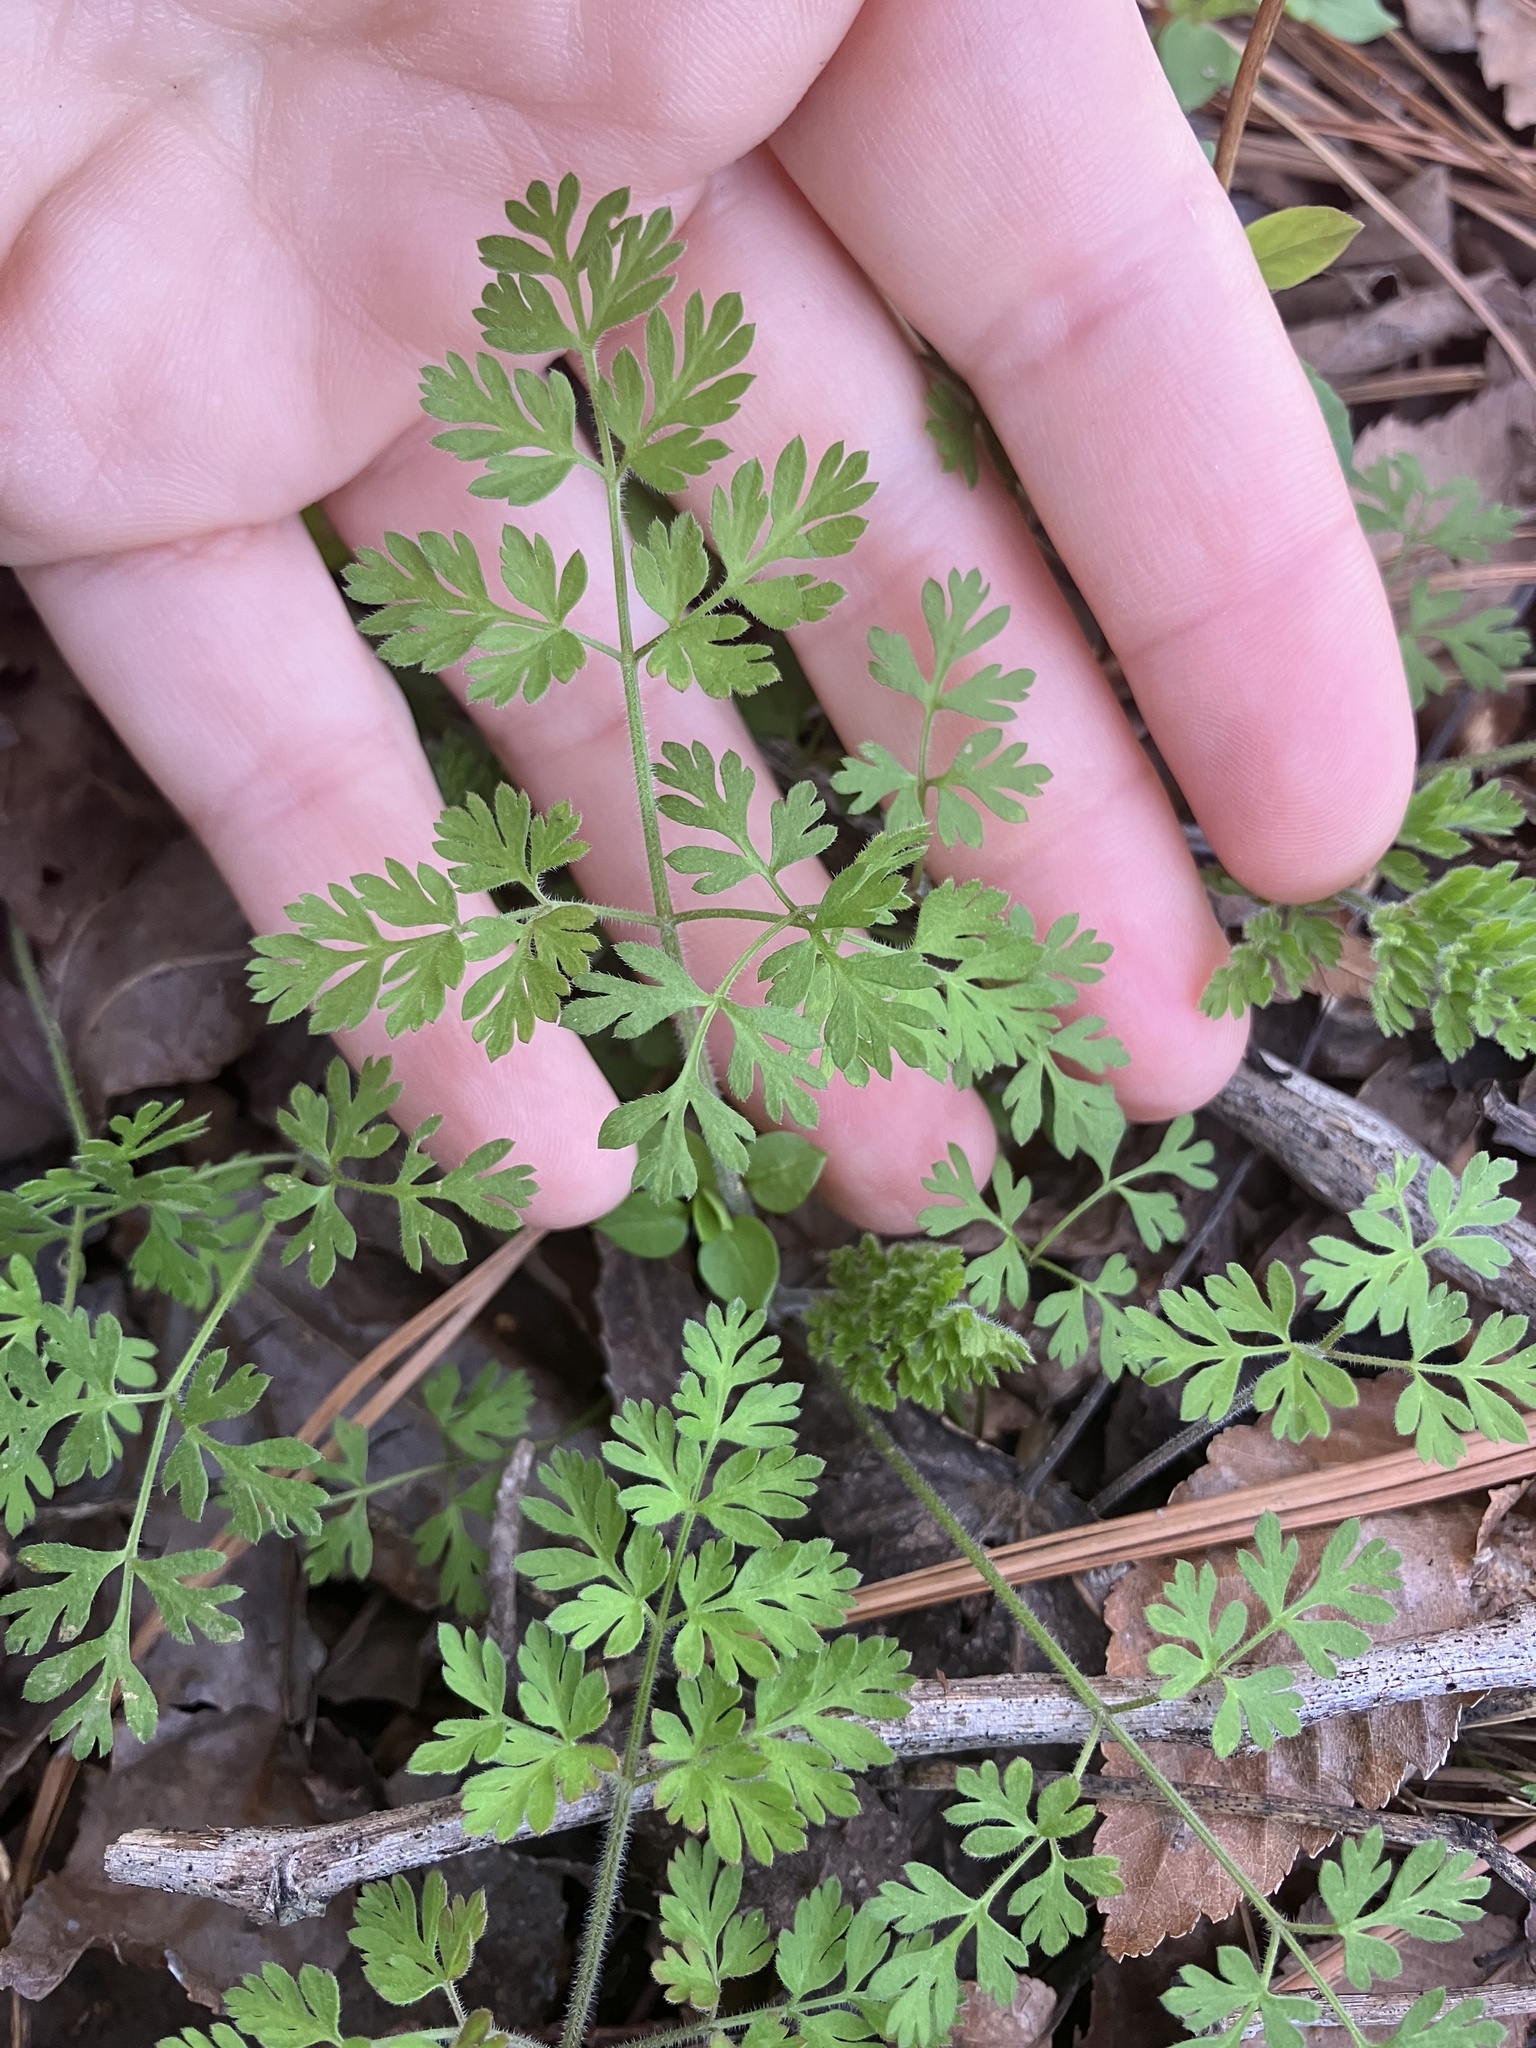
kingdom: Plantae
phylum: Tracheophyta
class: Magnoliopsida
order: Apiales
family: Apiaceae
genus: Chaerophyllum
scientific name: Chaerophyllum tainturieri
